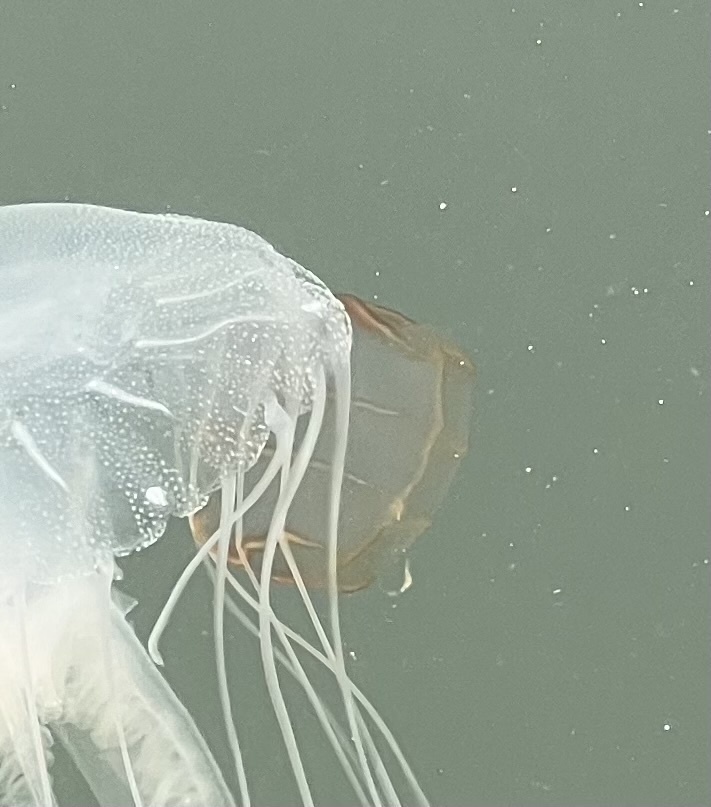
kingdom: Animalia
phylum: Ctenophora
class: Nuda
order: Beroida
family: Beroidae
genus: Beroe
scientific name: Beroe ovata
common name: Flattened helmet comb jelly
